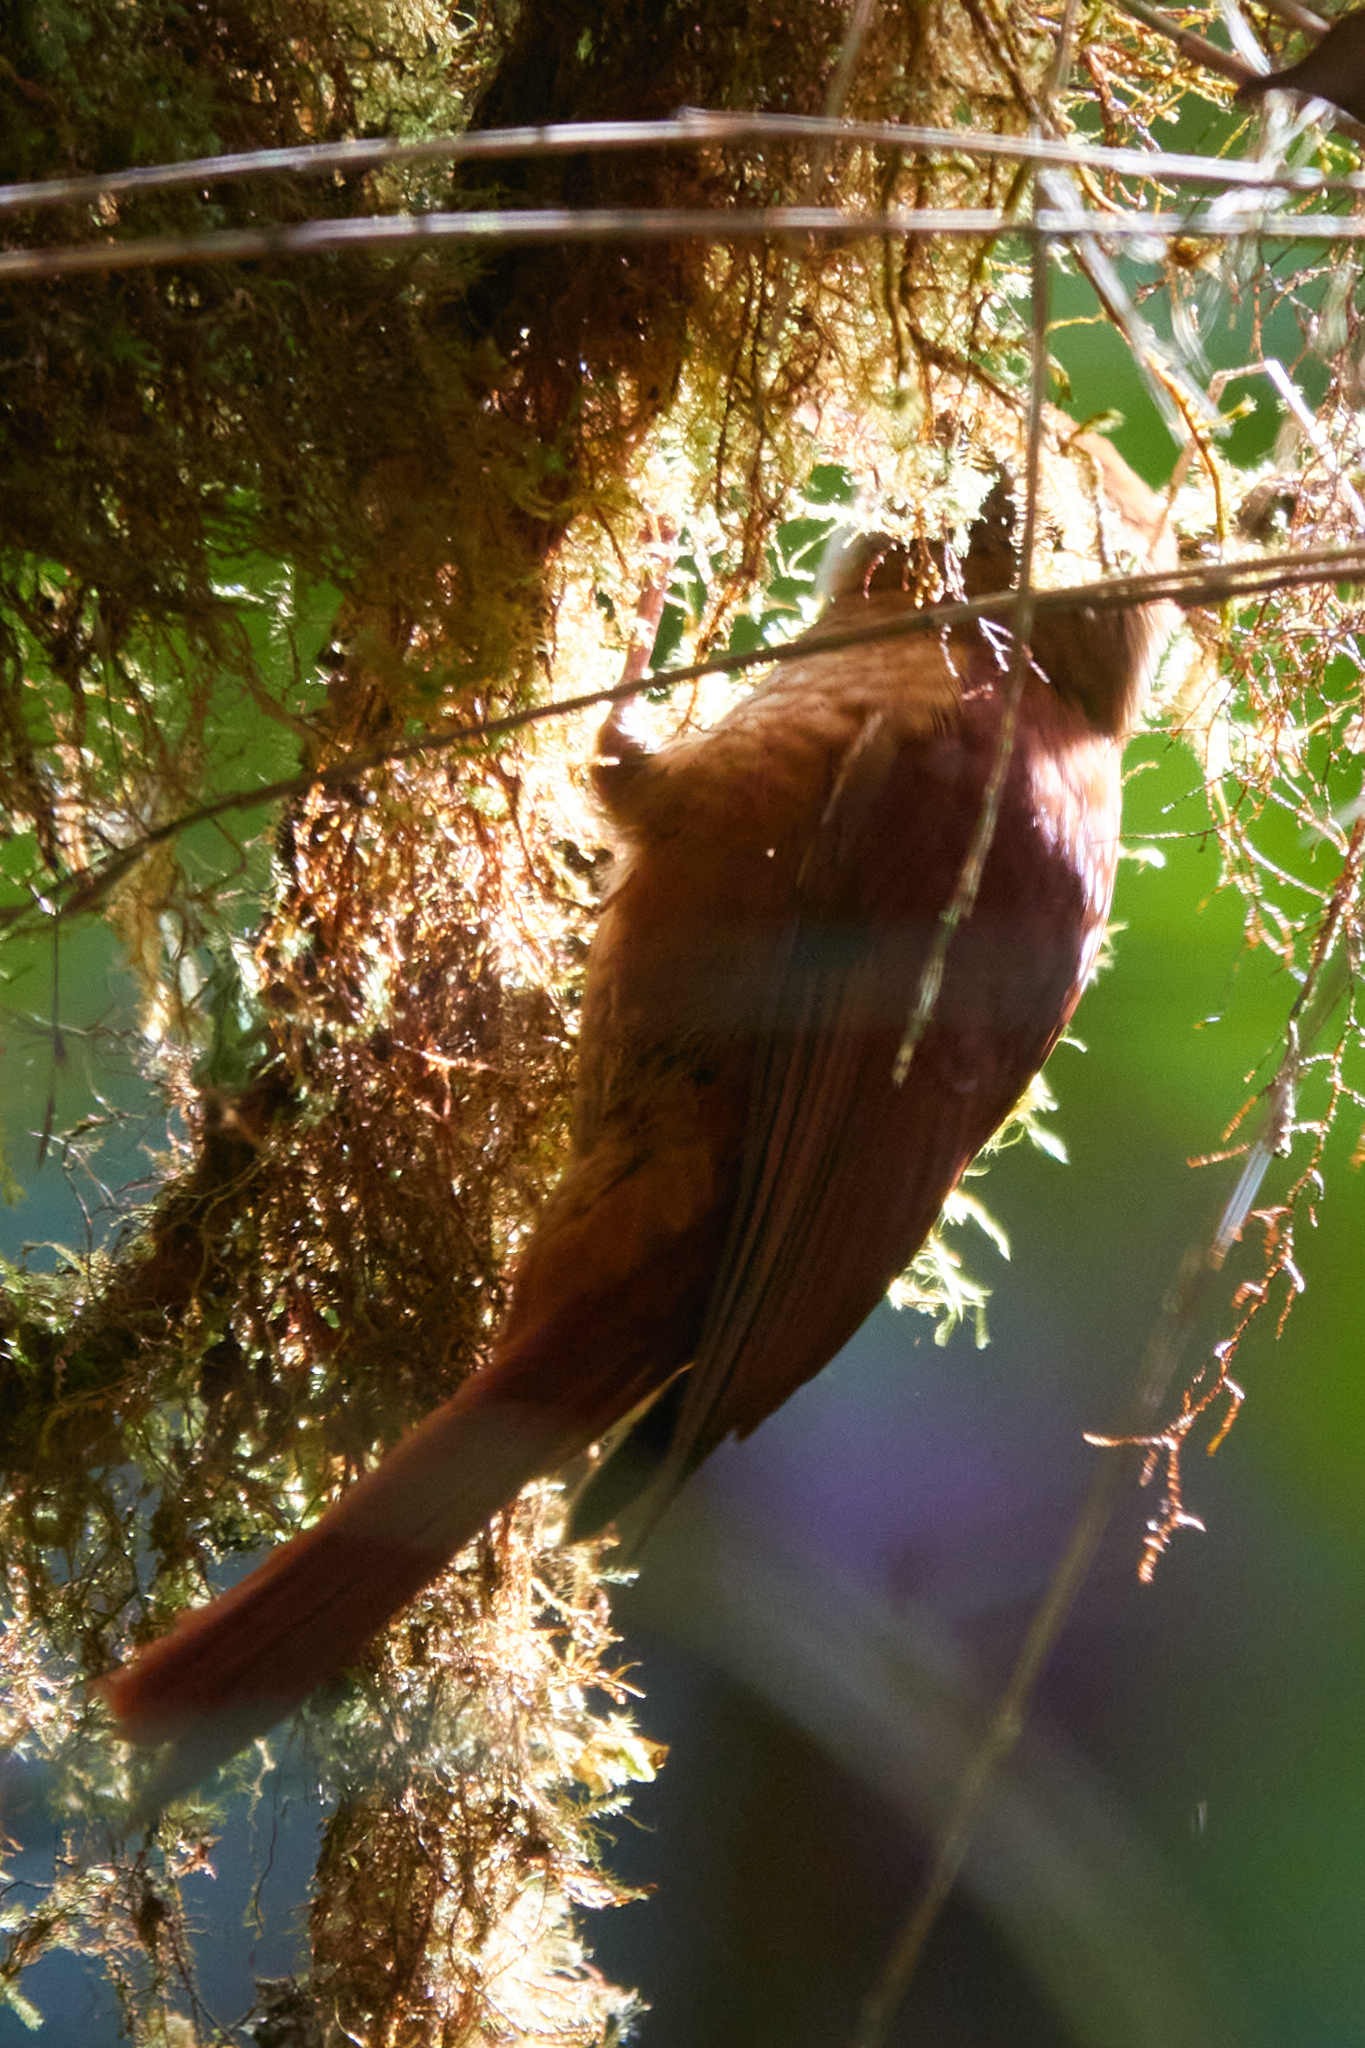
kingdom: Animalia
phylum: Chordata
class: Aves
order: Passeriformes
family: Furnariidae
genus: Margarornis
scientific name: Margarornis rubiginosus
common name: Ruddy treerunner
